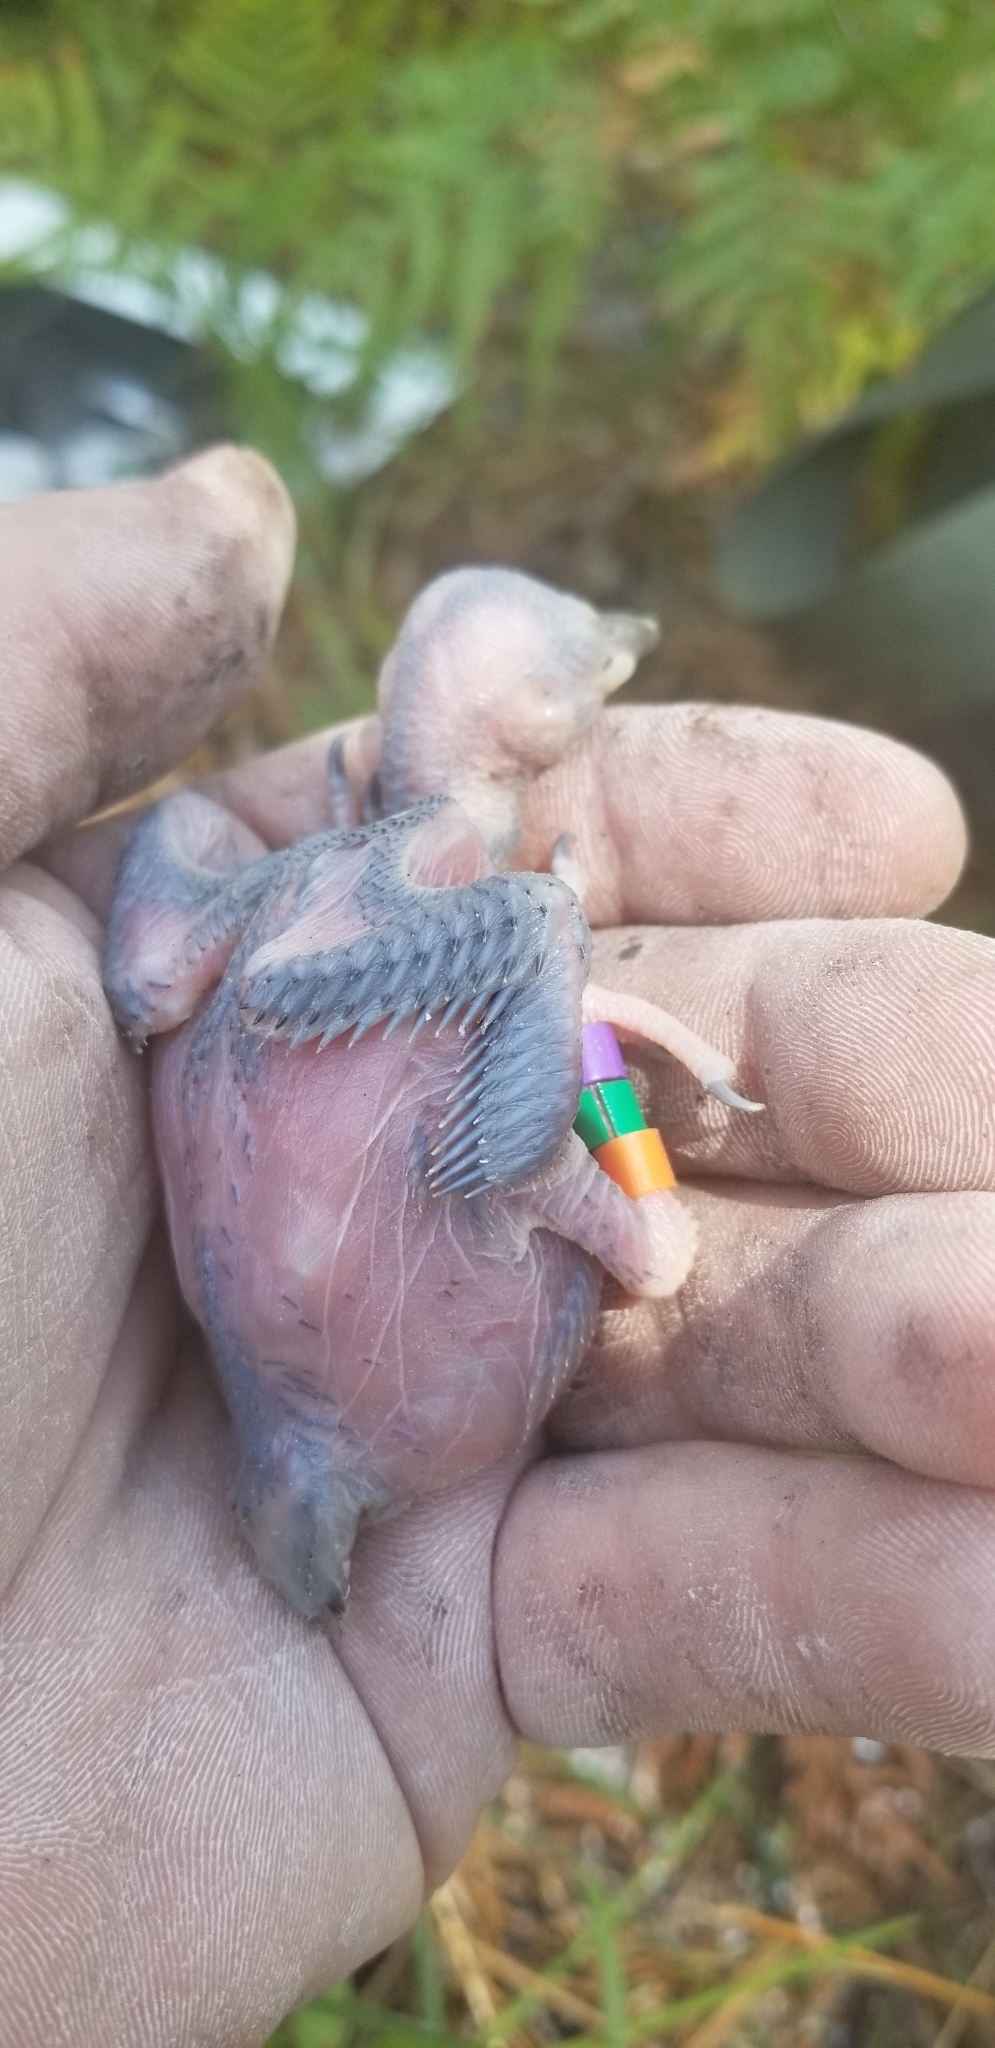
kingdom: Animalia
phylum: Chordata
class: Aves
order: Piciformes
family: Picidae
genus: Leuconotopicus
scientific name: Leuconotopicus borealis
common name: Red-cockaded woodpecker
